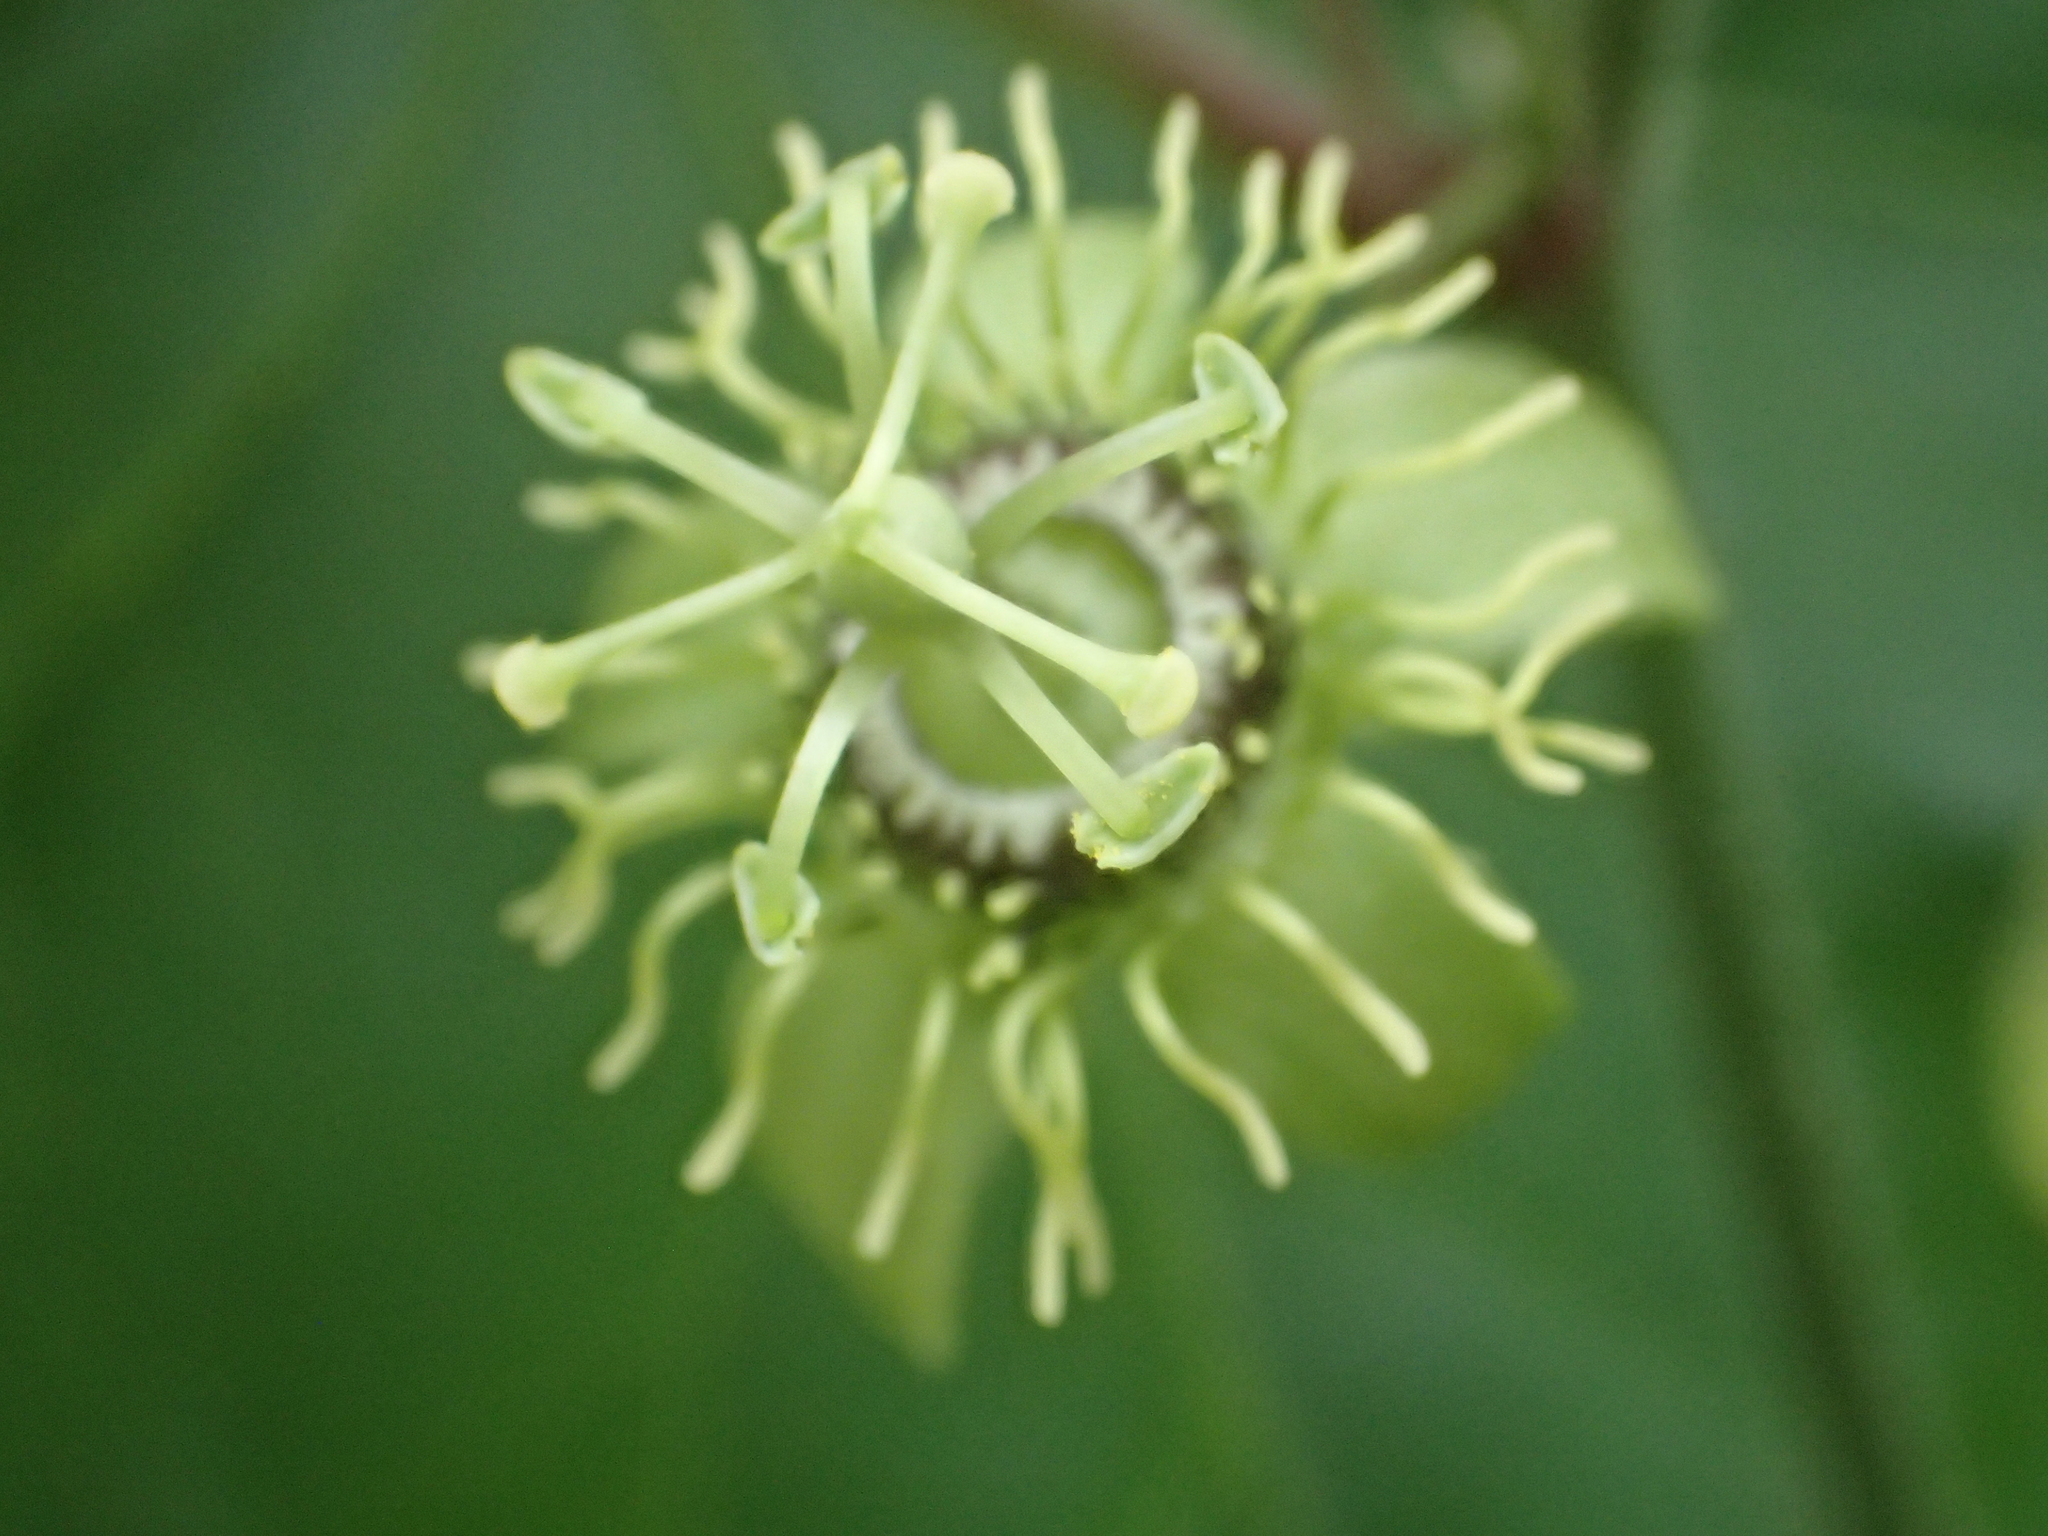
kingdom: Plantae
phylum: Tracheophyta
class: Magnoliopsida
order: Malpighiales
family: Passifloraceae
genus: Passiflora
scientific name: Passiflora suberosa
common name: Wild passionfruit
